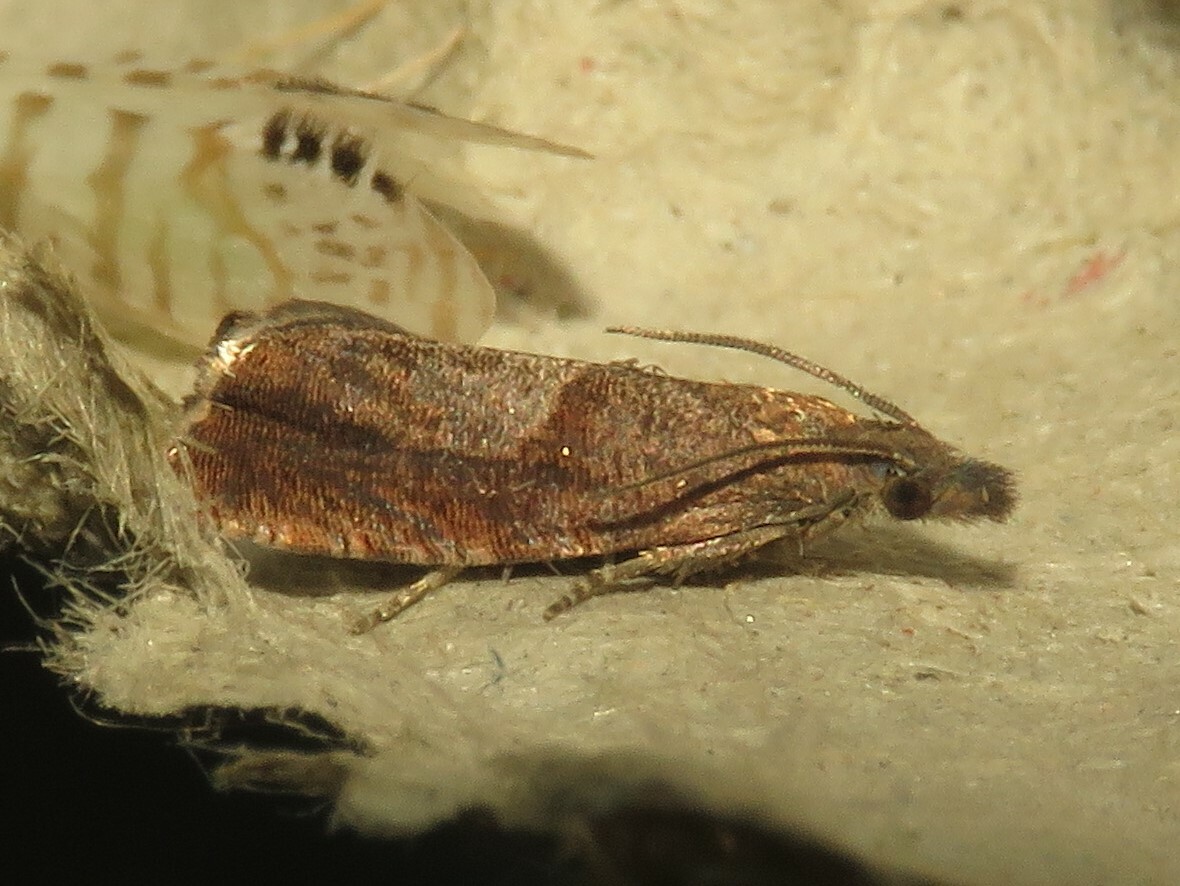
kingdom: Animalia
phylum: Arthropoda
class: Insecta
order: Lepidoptera
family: Tortricidae
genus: Dichrorampha
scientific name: Dichrorampha acuminatana
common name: Sharp-winged drill
